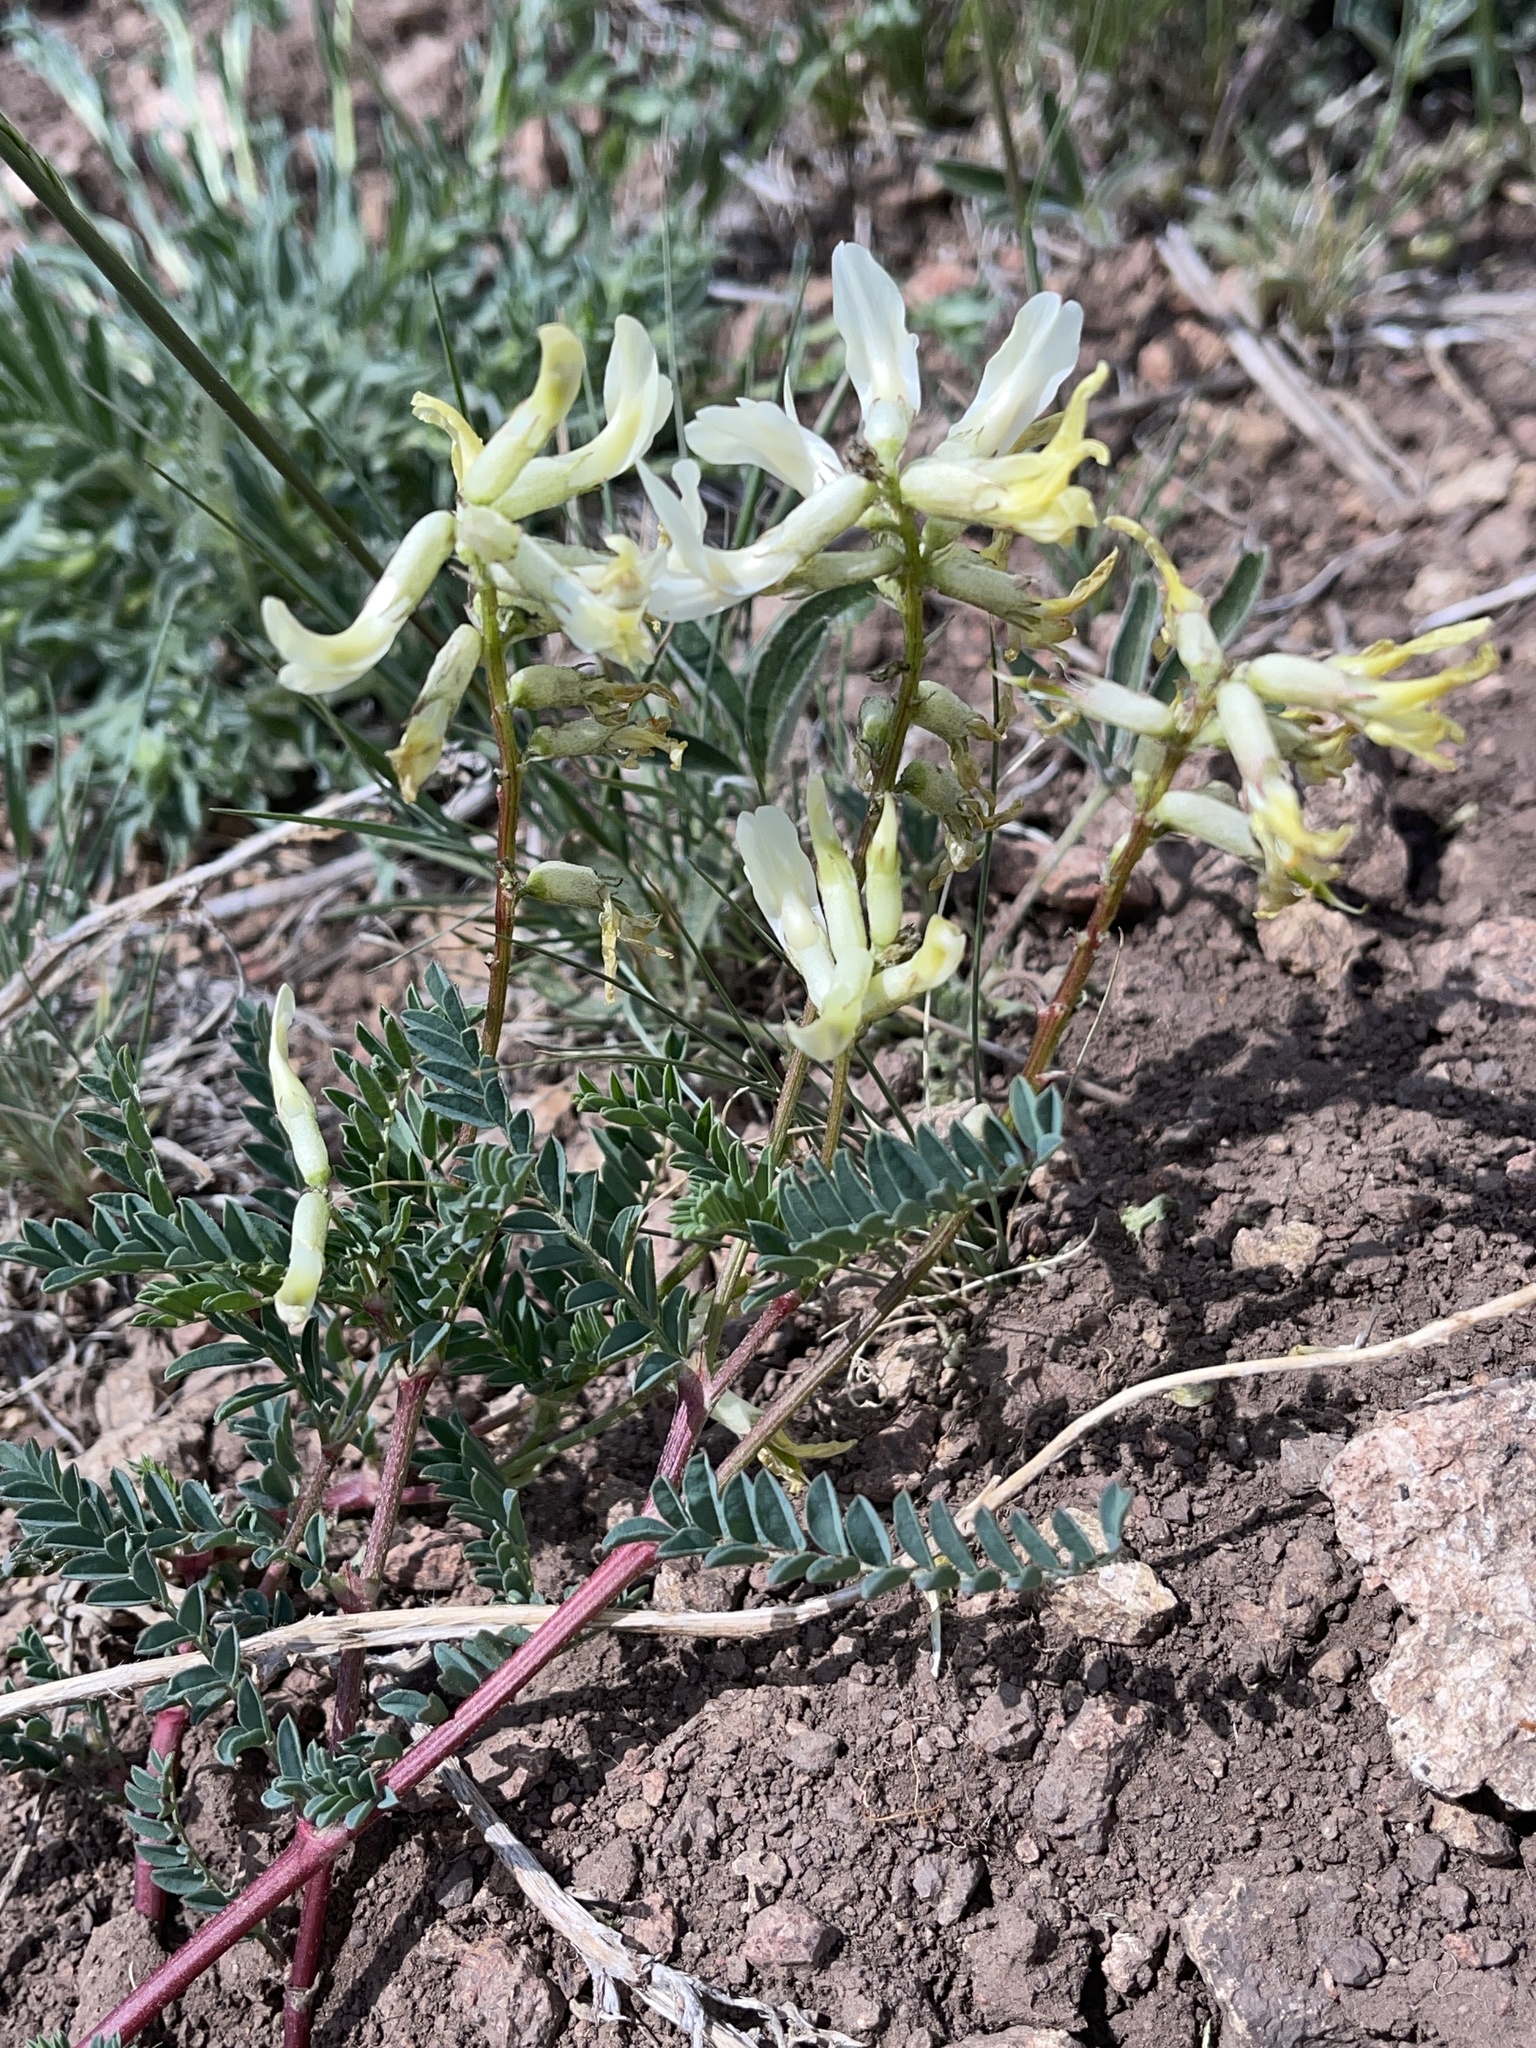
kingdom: Plantae
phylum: Tracheophyta
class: Magnoliopsida
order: Fabales
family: Fabaceae
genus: Astragalus
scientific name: Astragalus scopulorum
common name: Rocky mountain milk-vetch
